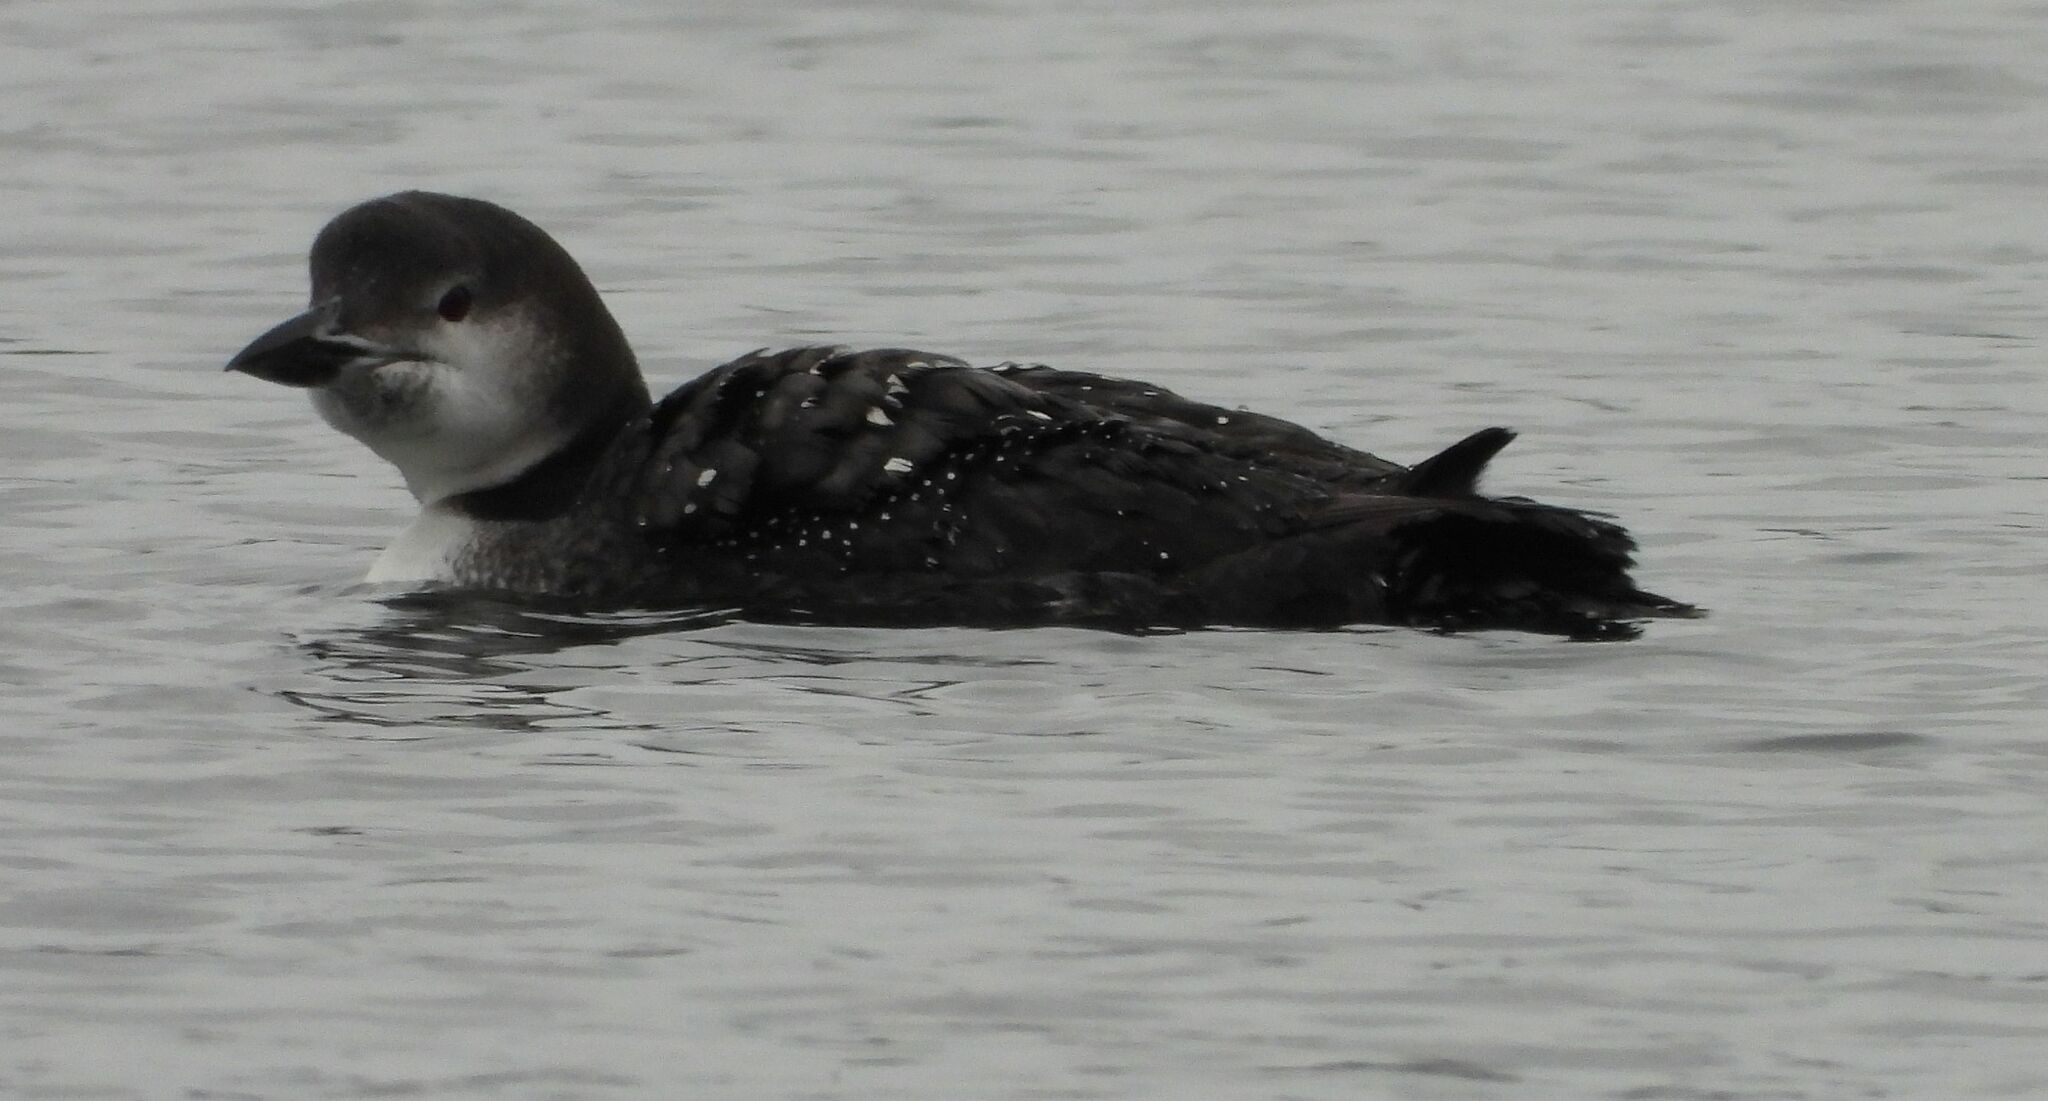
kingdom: Animalia
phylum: Chordata
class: Aves
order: Gaviiformes
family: Gaviidae
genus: Gavia
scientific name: Gavia immer
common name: Common loon
